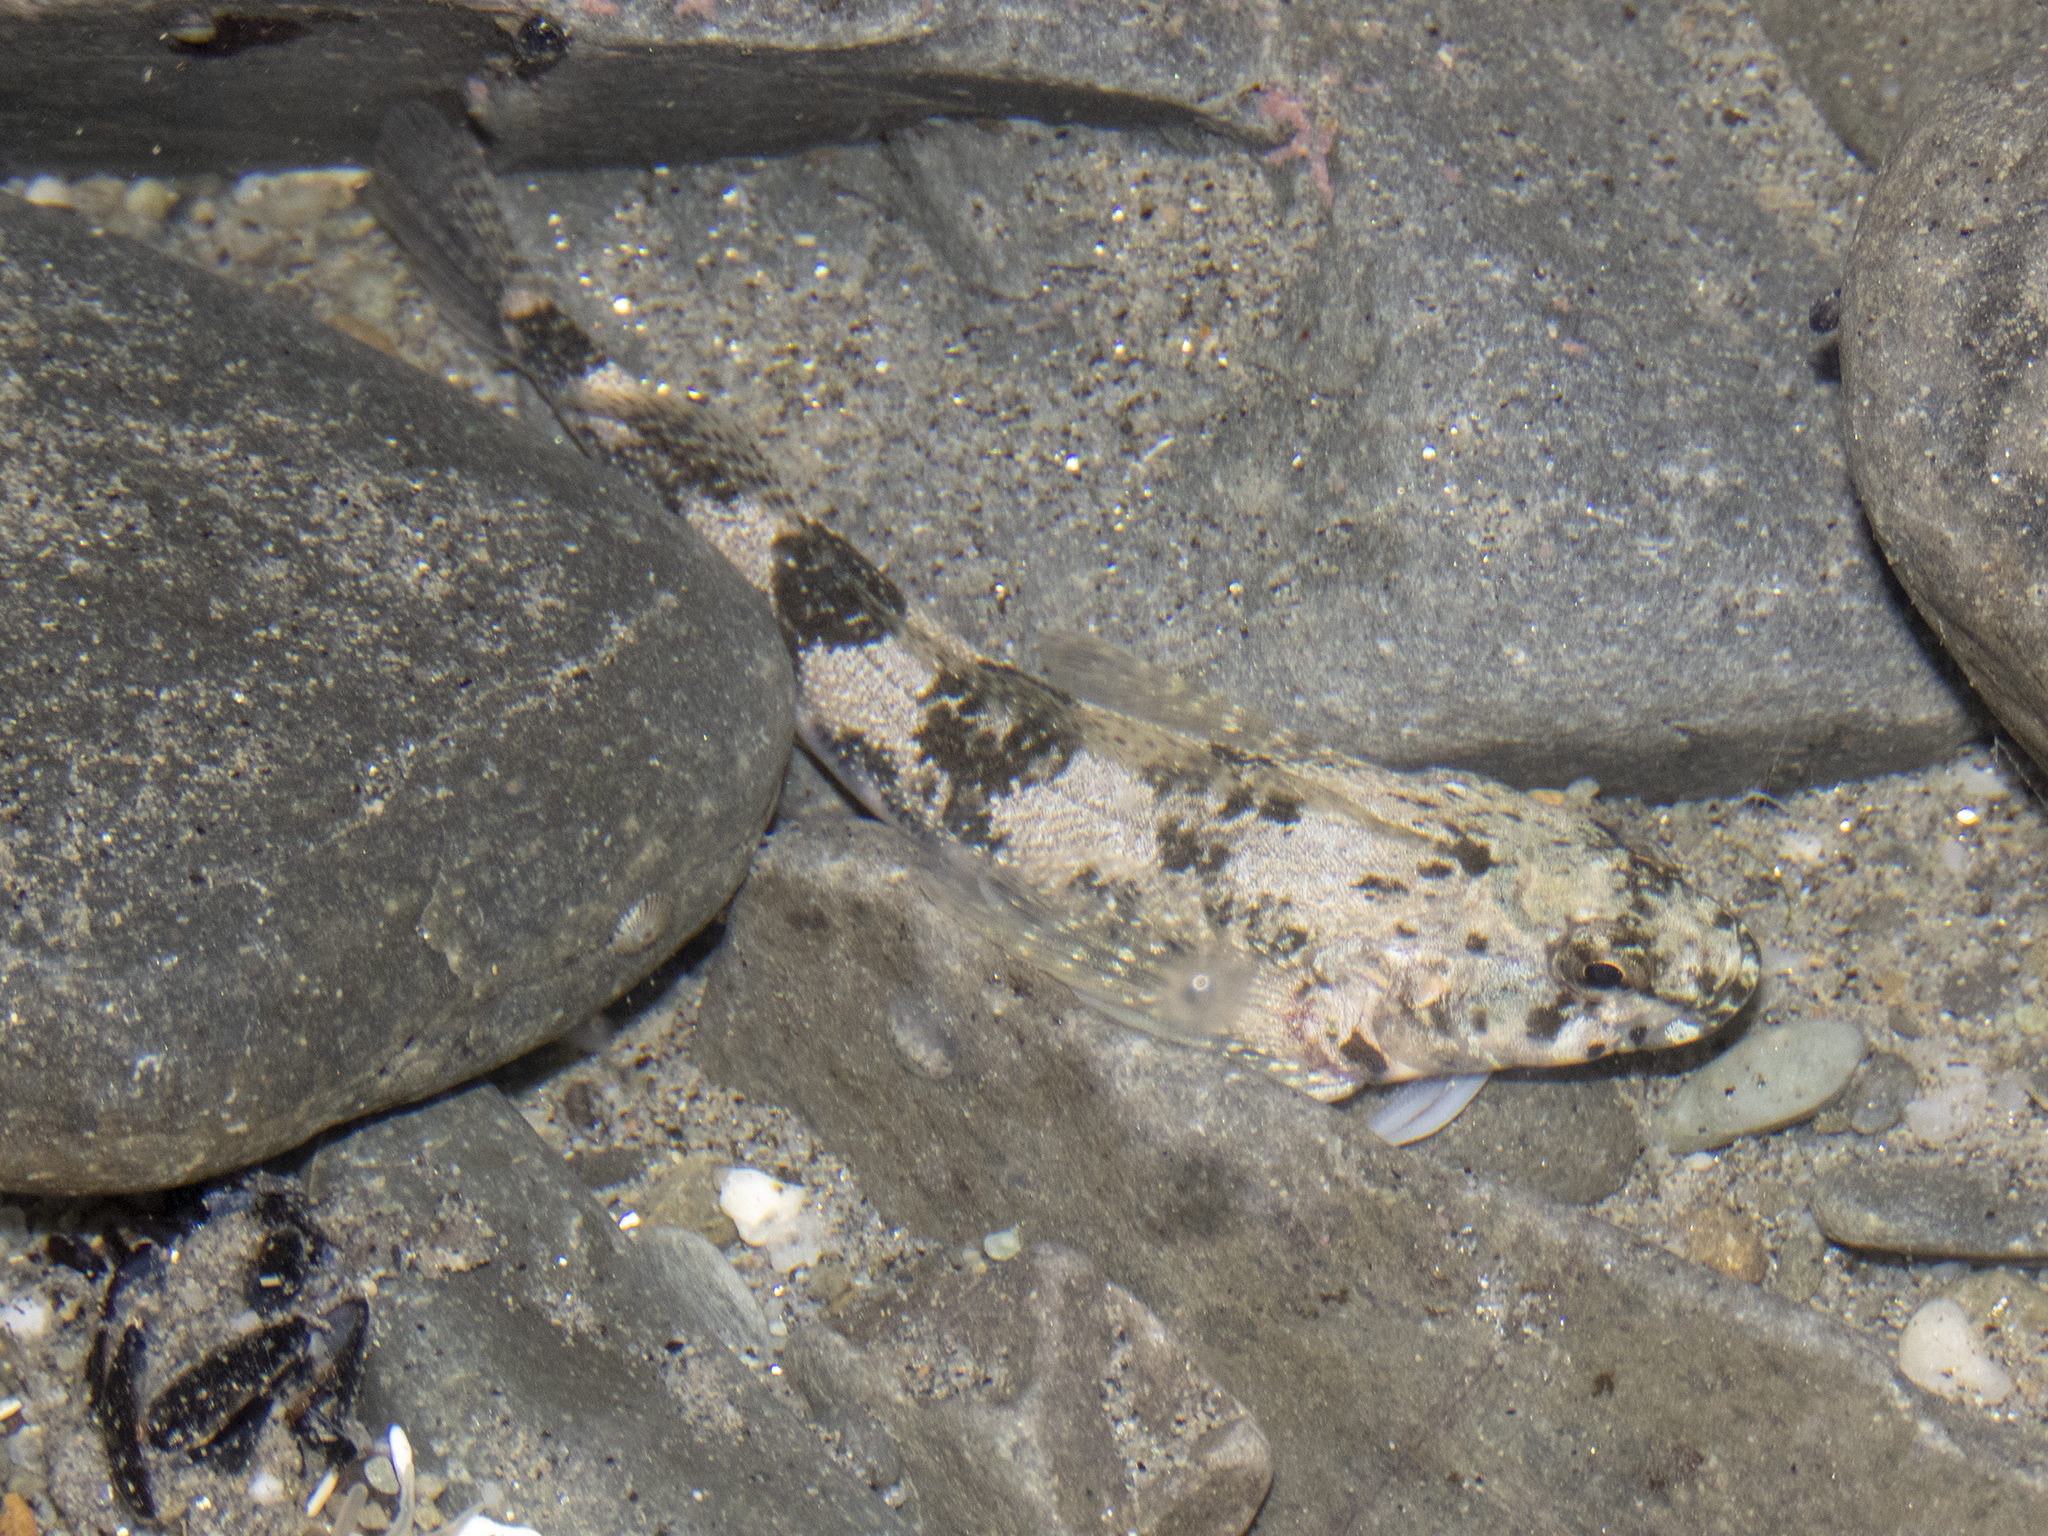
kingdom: Animalia
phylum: Chordata
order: Perciformes
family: Tripterygiidae
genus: Bellapiscis
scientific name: Bellapiscis medius
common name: Twister
